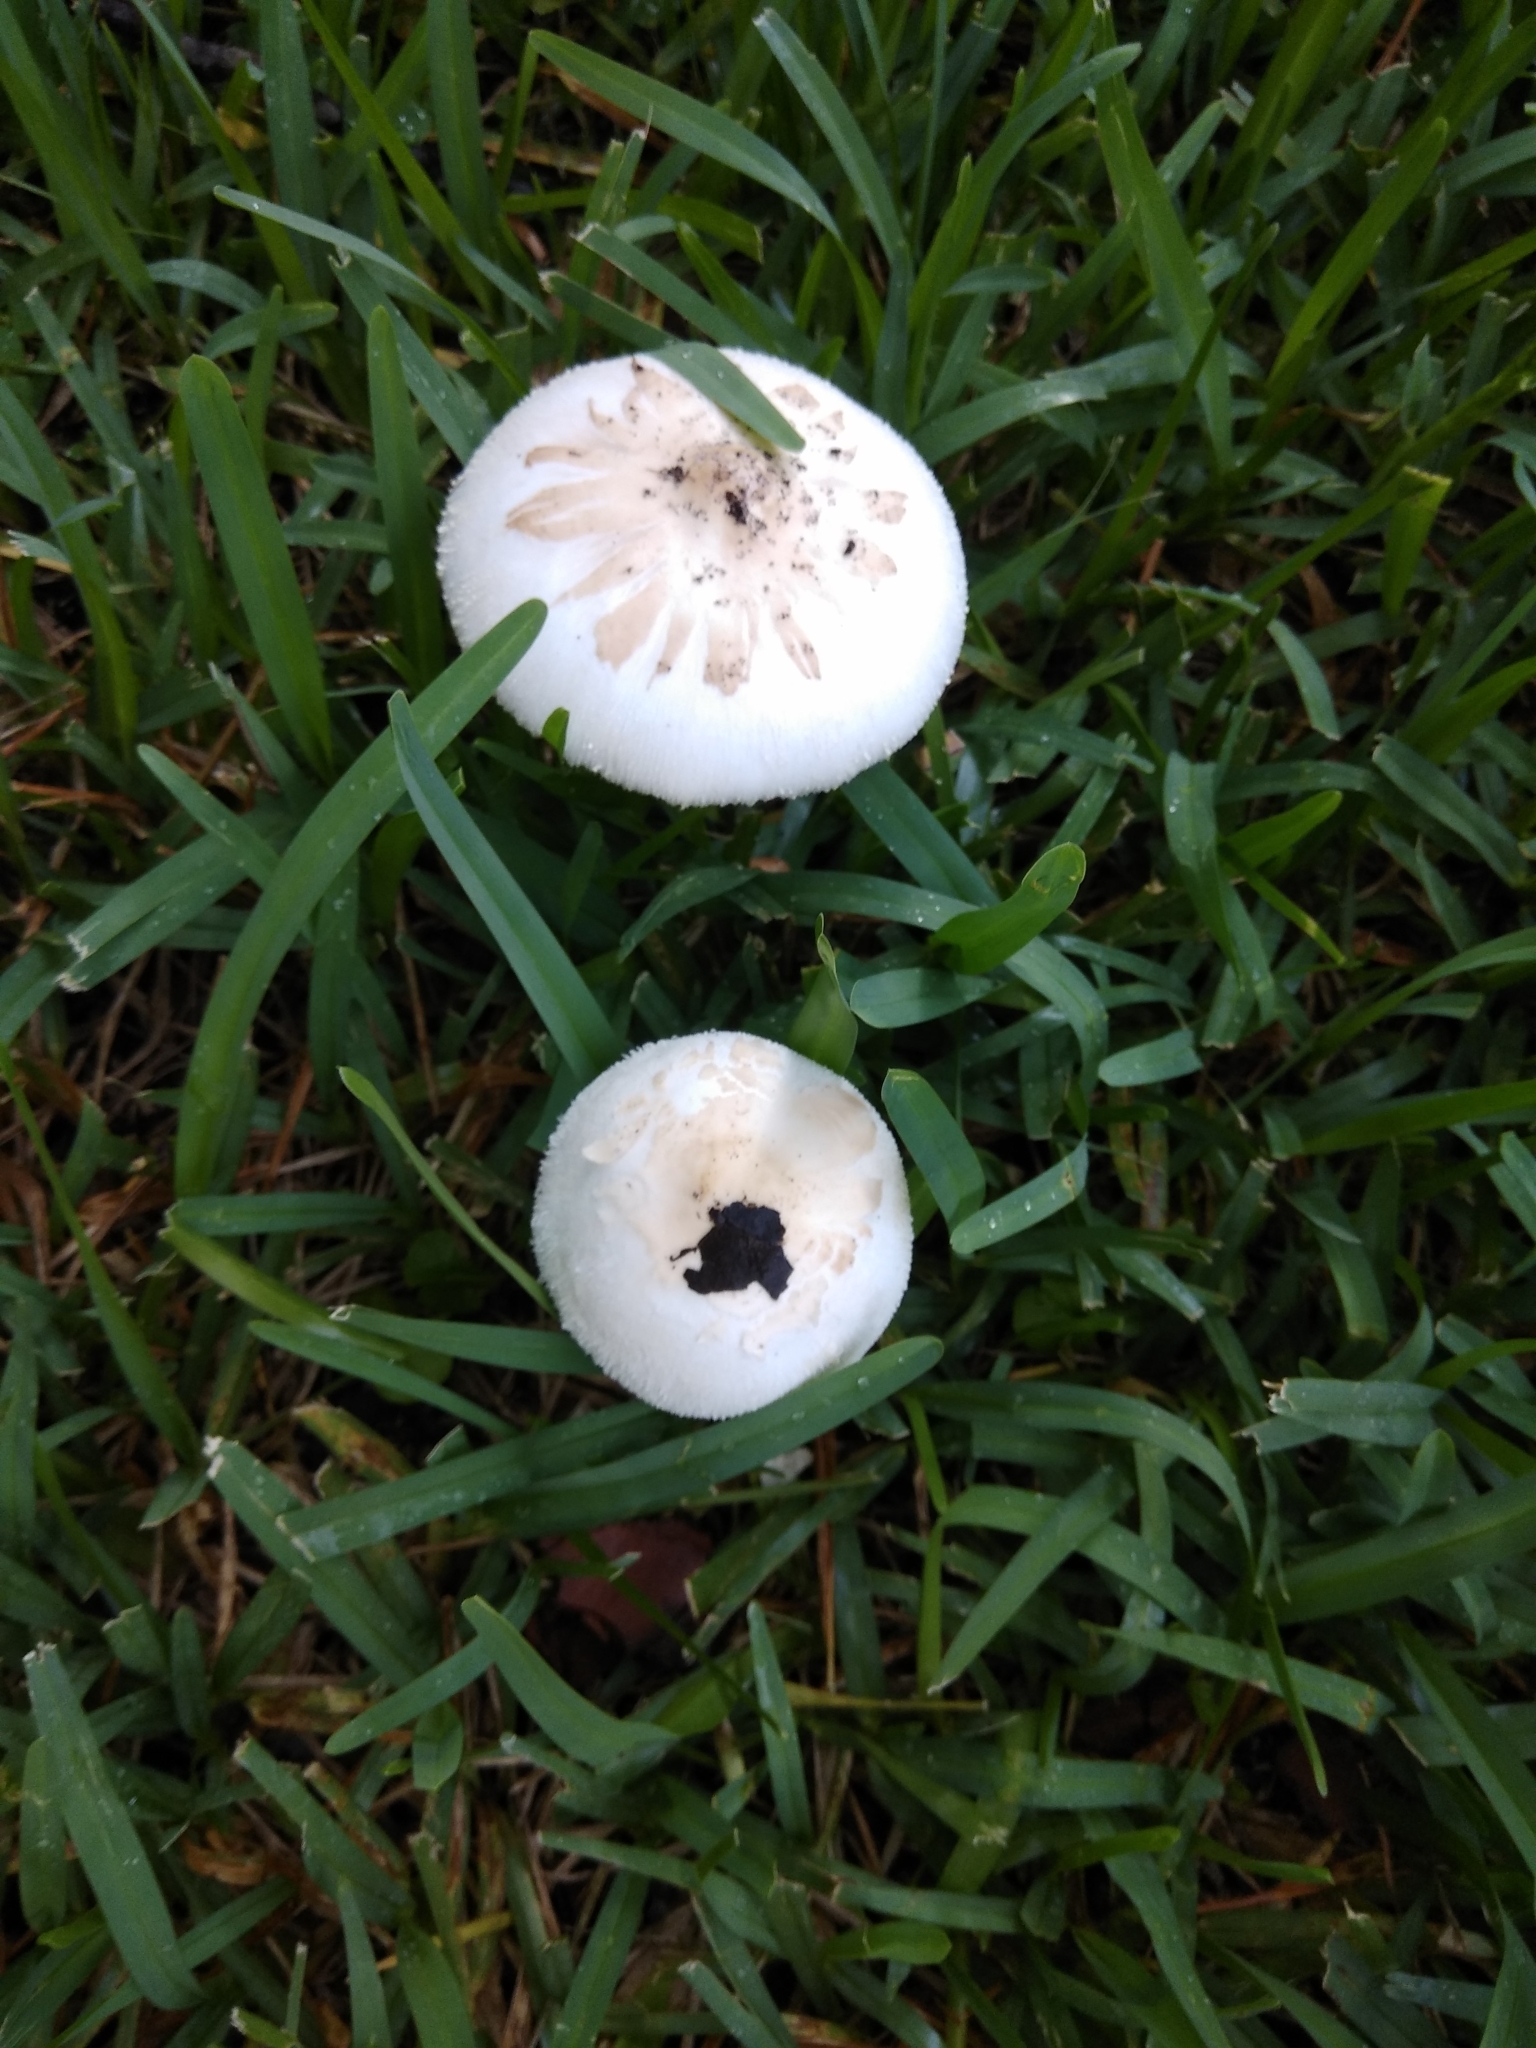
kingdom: Fungi
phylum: Basidiomycota
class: Agaricomycetes
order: Agaricales
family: Agaricaceae
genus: Chlorophyllum
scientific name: Chlorophyllum molybdites
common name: False parasol
